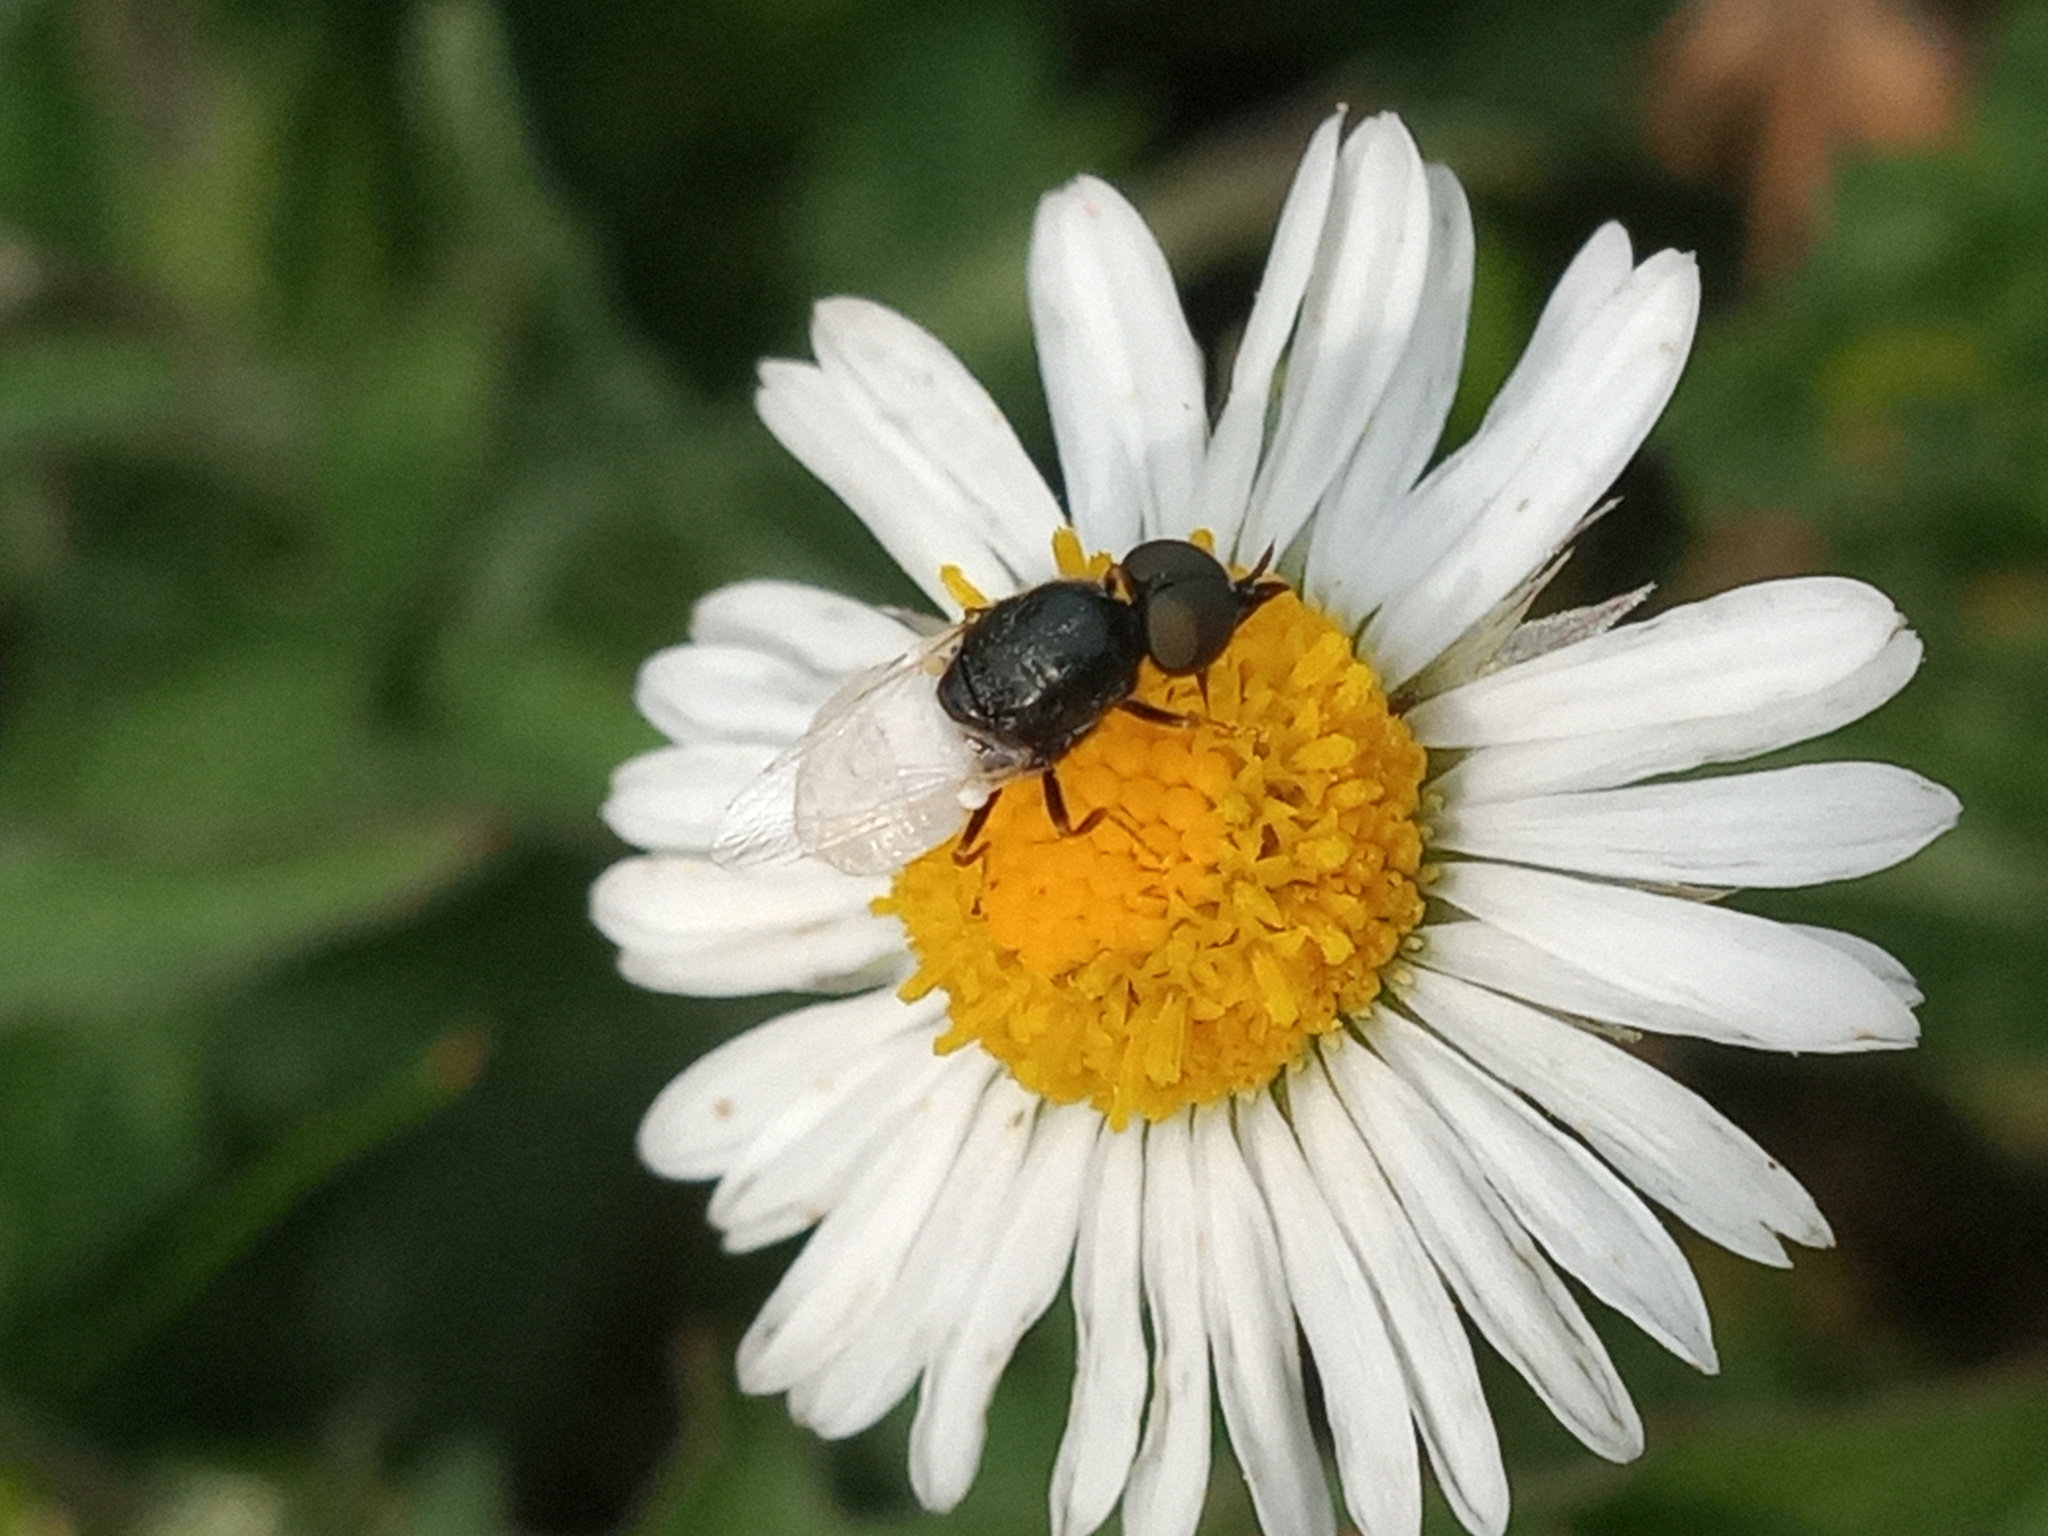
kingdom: Animalia
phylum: Arthropoda
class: Insecta
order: Diptera
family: Stratiomyidae
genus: Nemotelus
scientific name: Nemotelus kansensis
